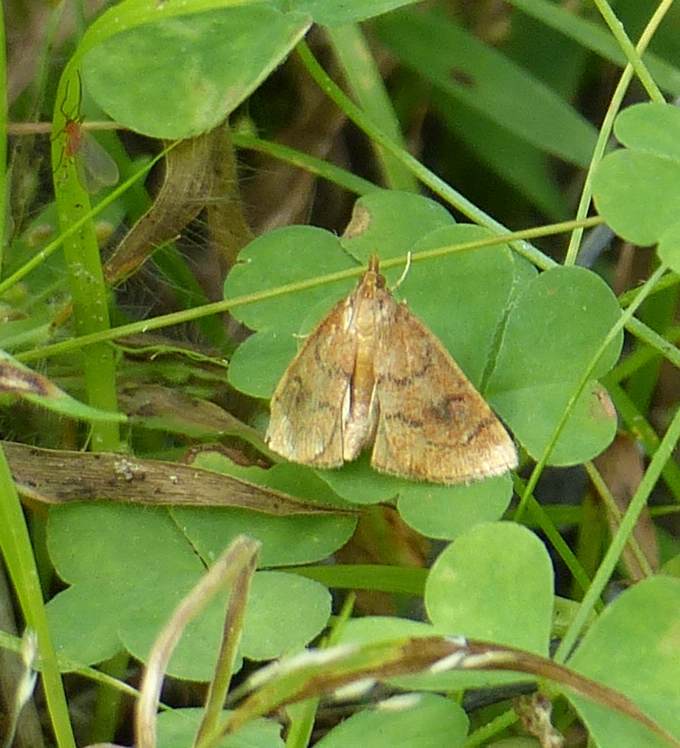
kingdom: Animalia
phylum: Arthropoda
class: Insecta
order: Lepidoptera
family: Crambidae
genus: Fumibotys
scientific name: Fumibotys fumalis
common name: Mint root borer moth
